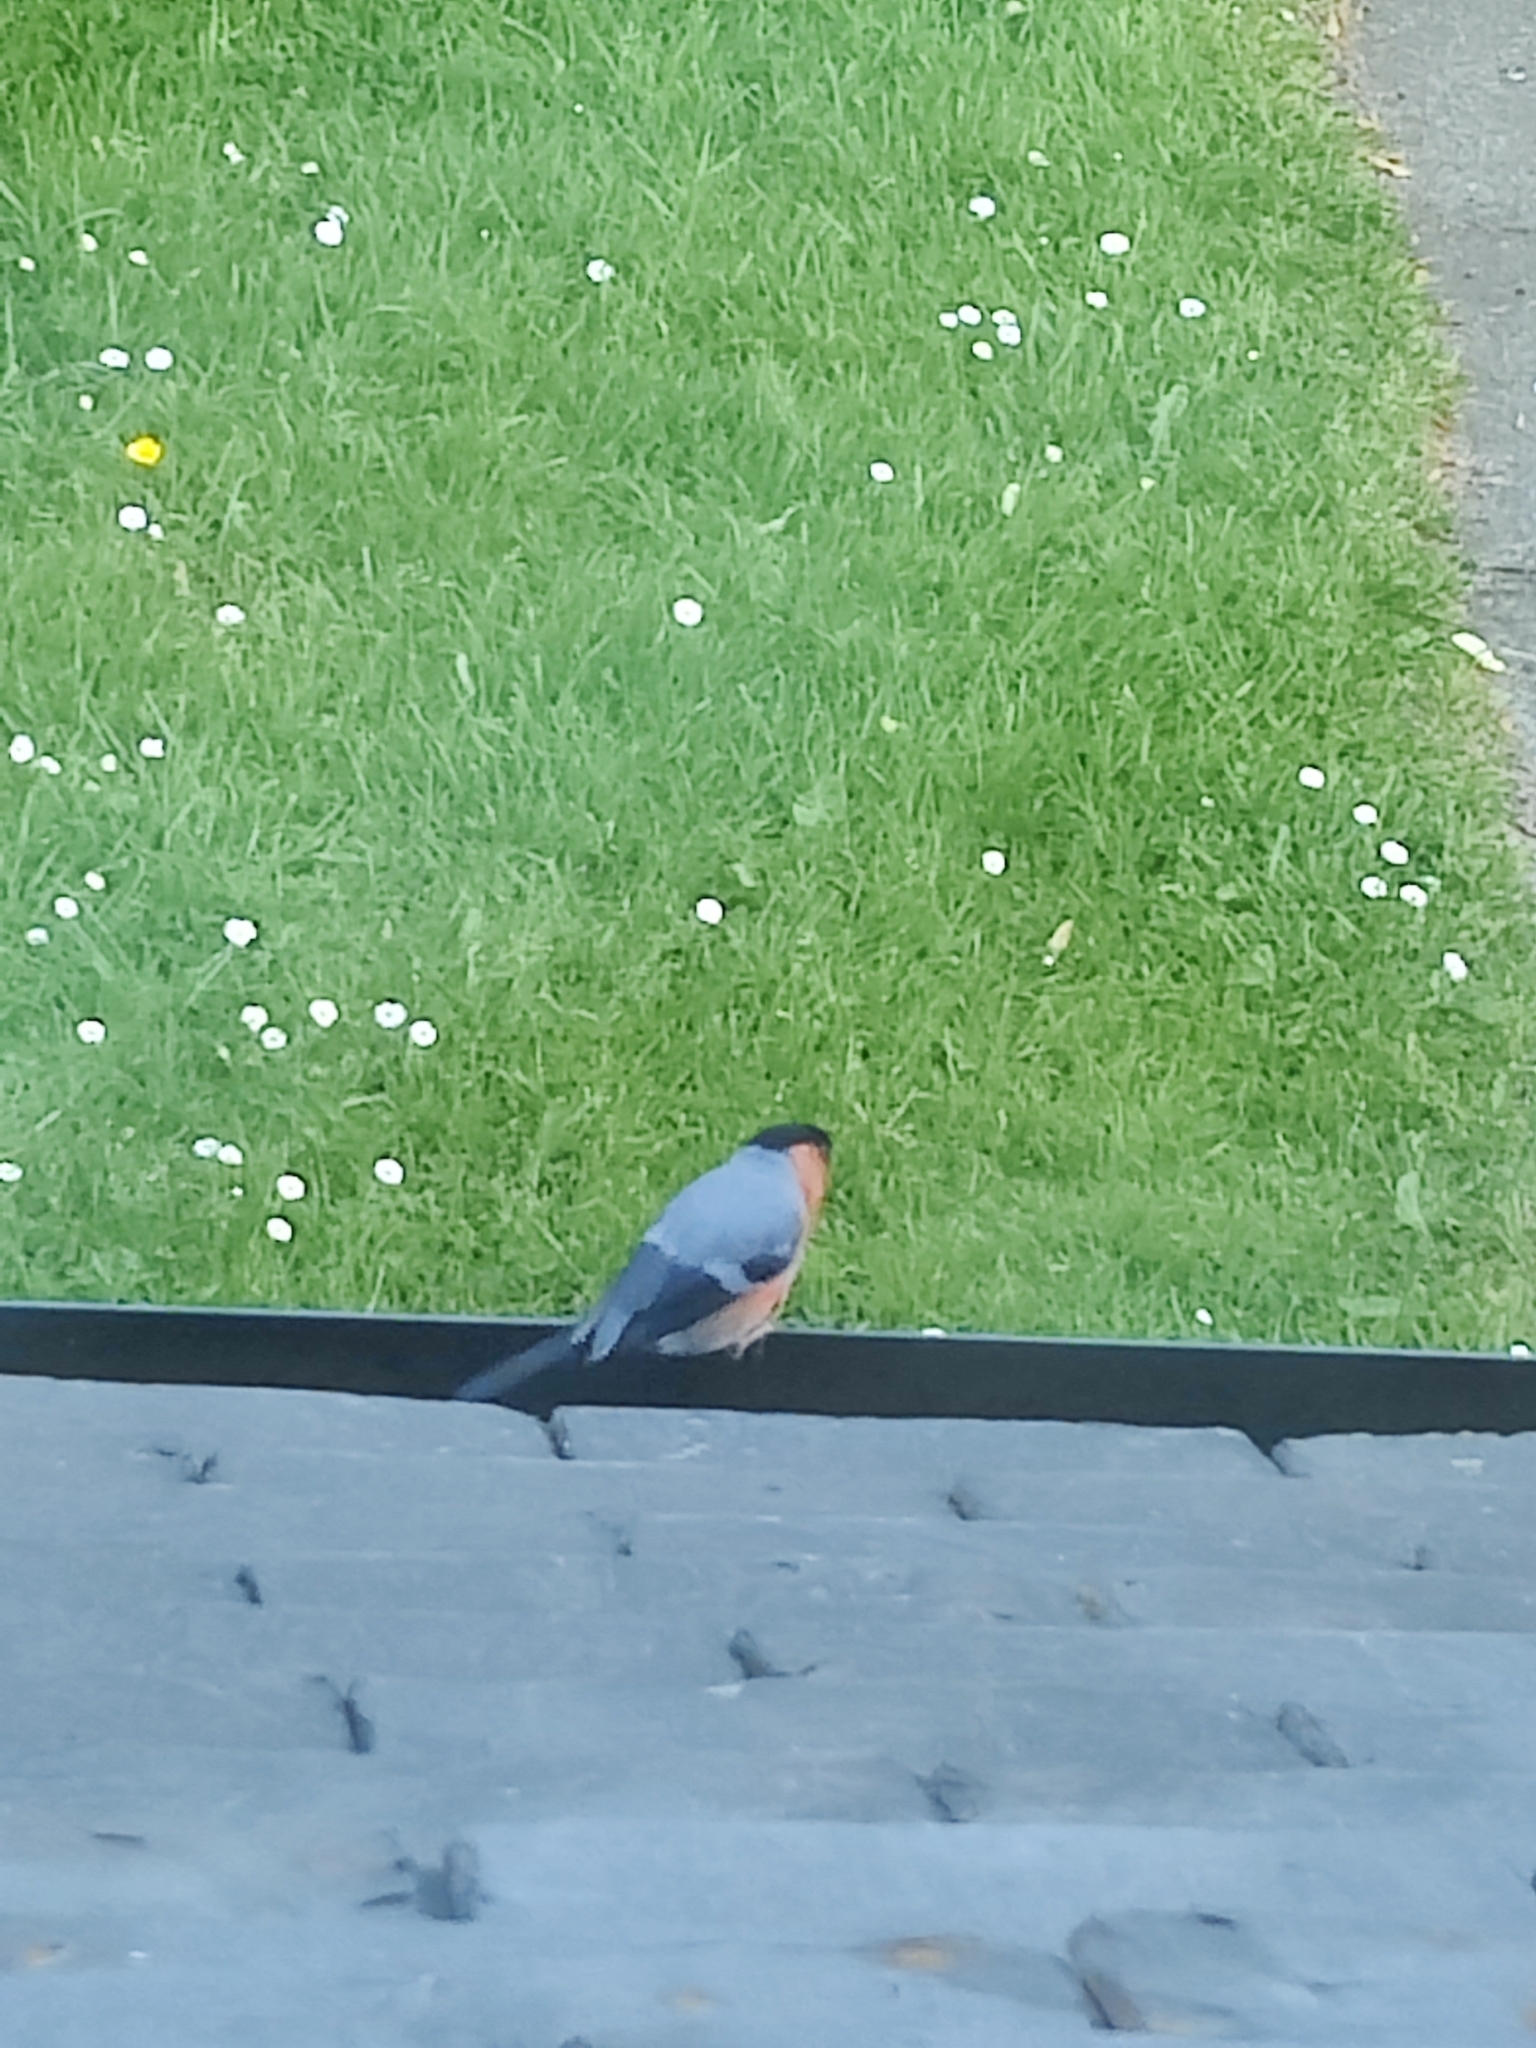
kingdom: Animalia
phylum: Chordata
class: Aves
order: Passeriformes
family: Fringillidae
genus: Pyrrhula
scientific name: Pyrrhula pyrrhula
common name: Eurasian bullfinch
